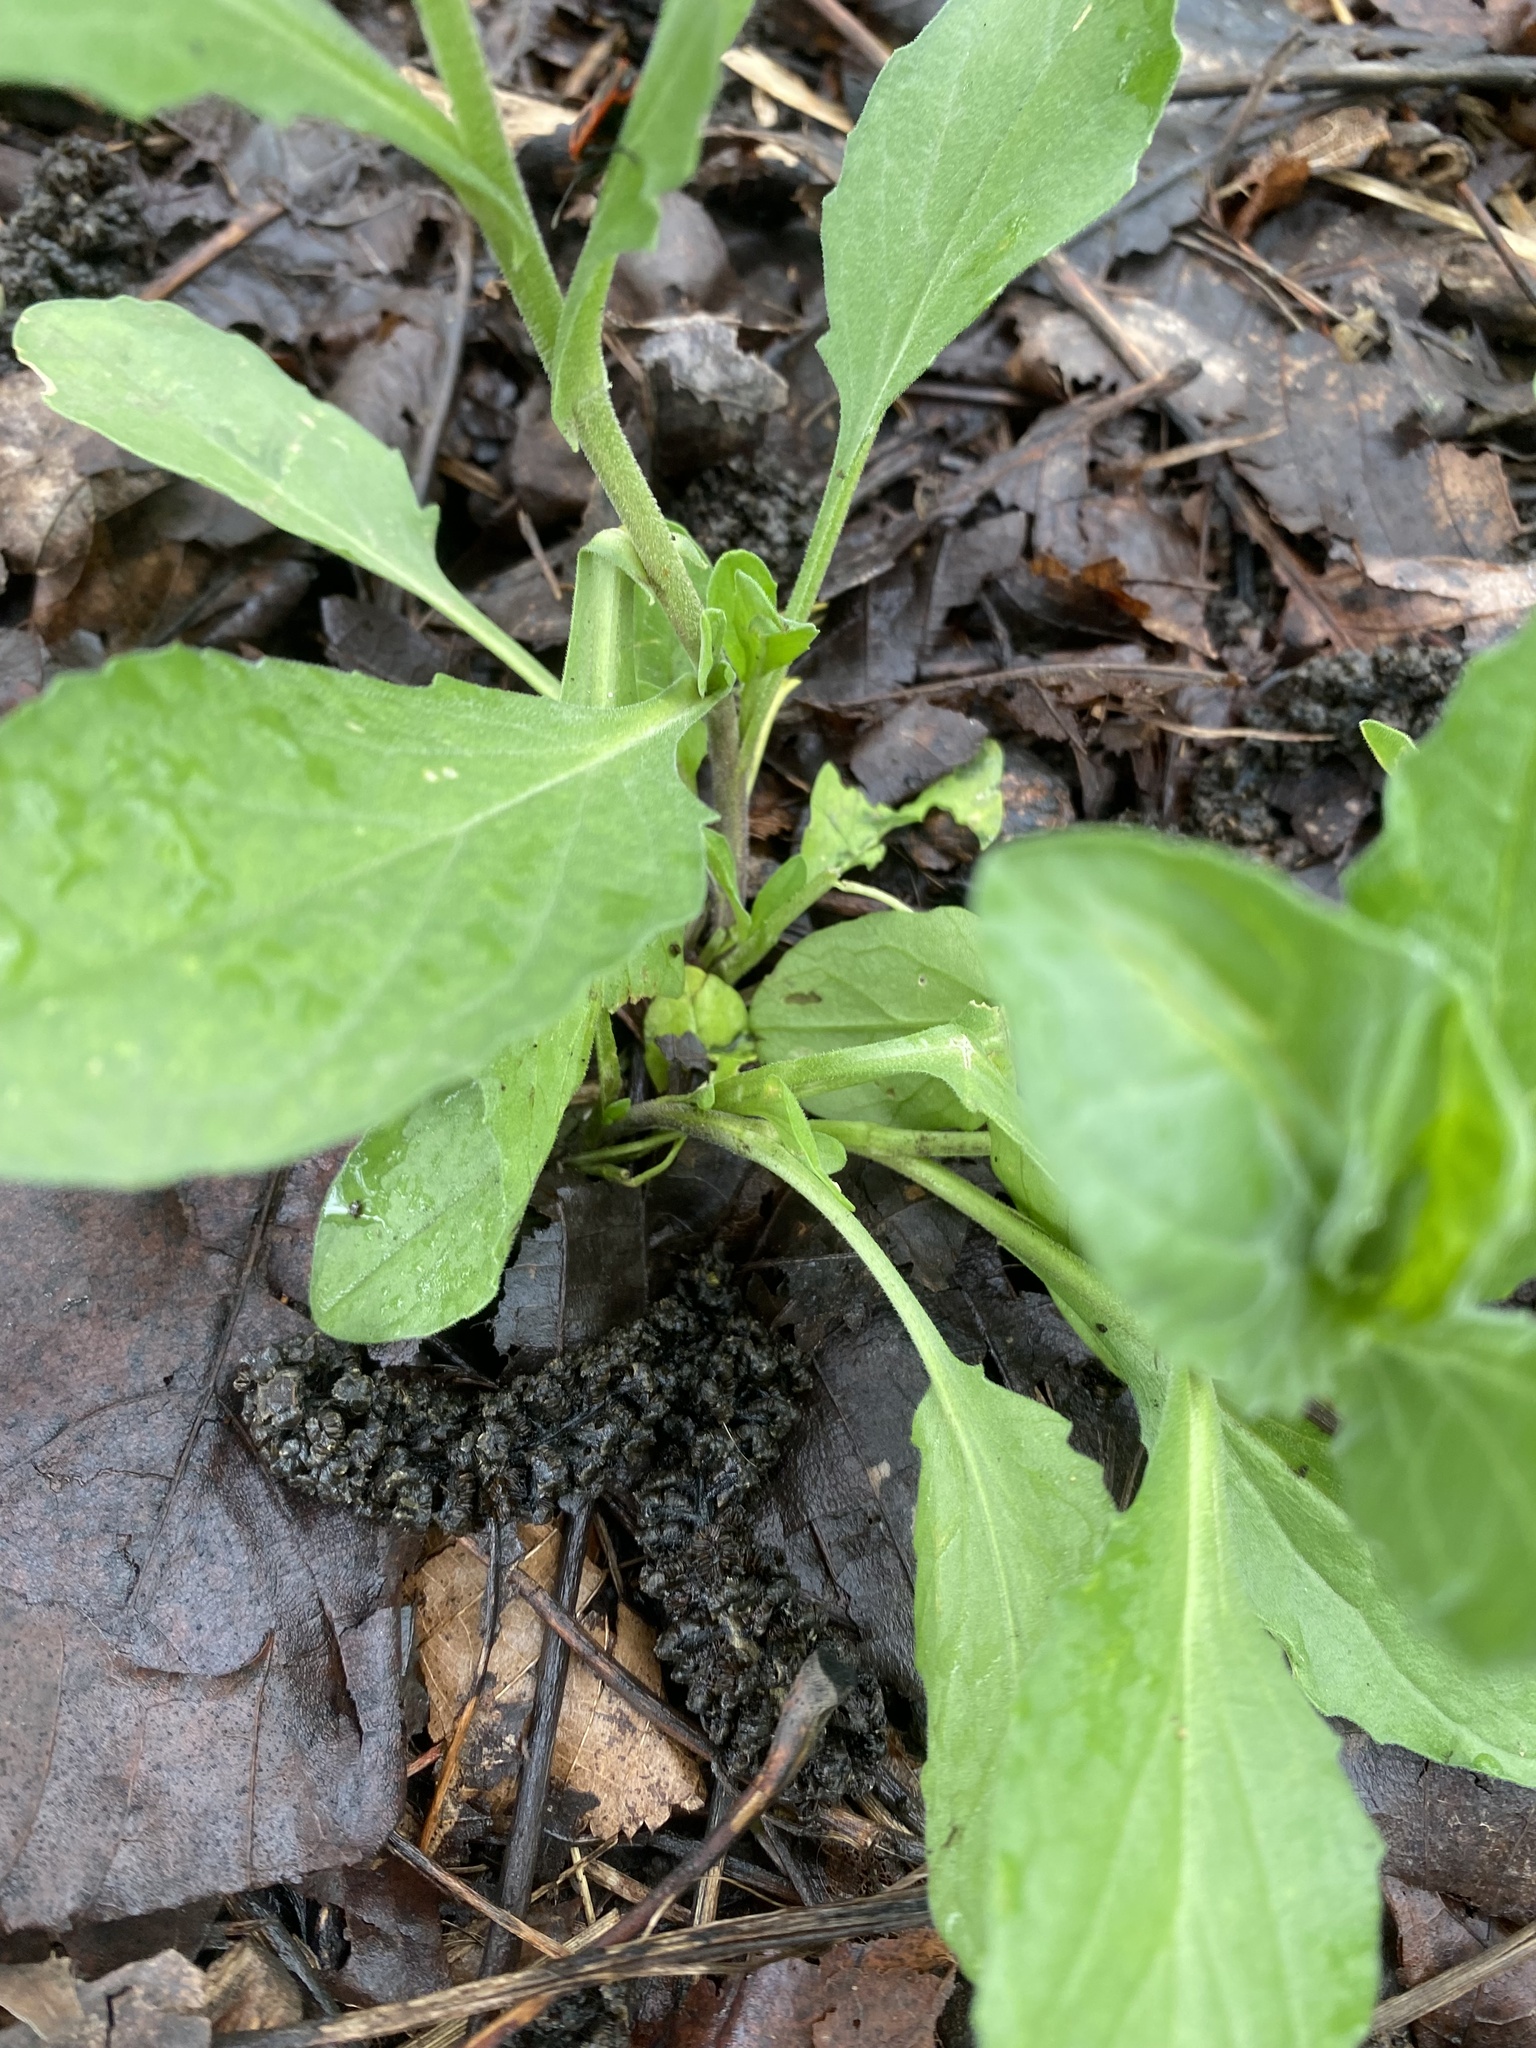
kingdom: Plantae
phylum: Tracheophyta
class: Magnoliopsida
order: Brassicales
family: Brassicaceae
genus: Lepidium
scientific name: Lepidium draba
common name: Hoary cress
